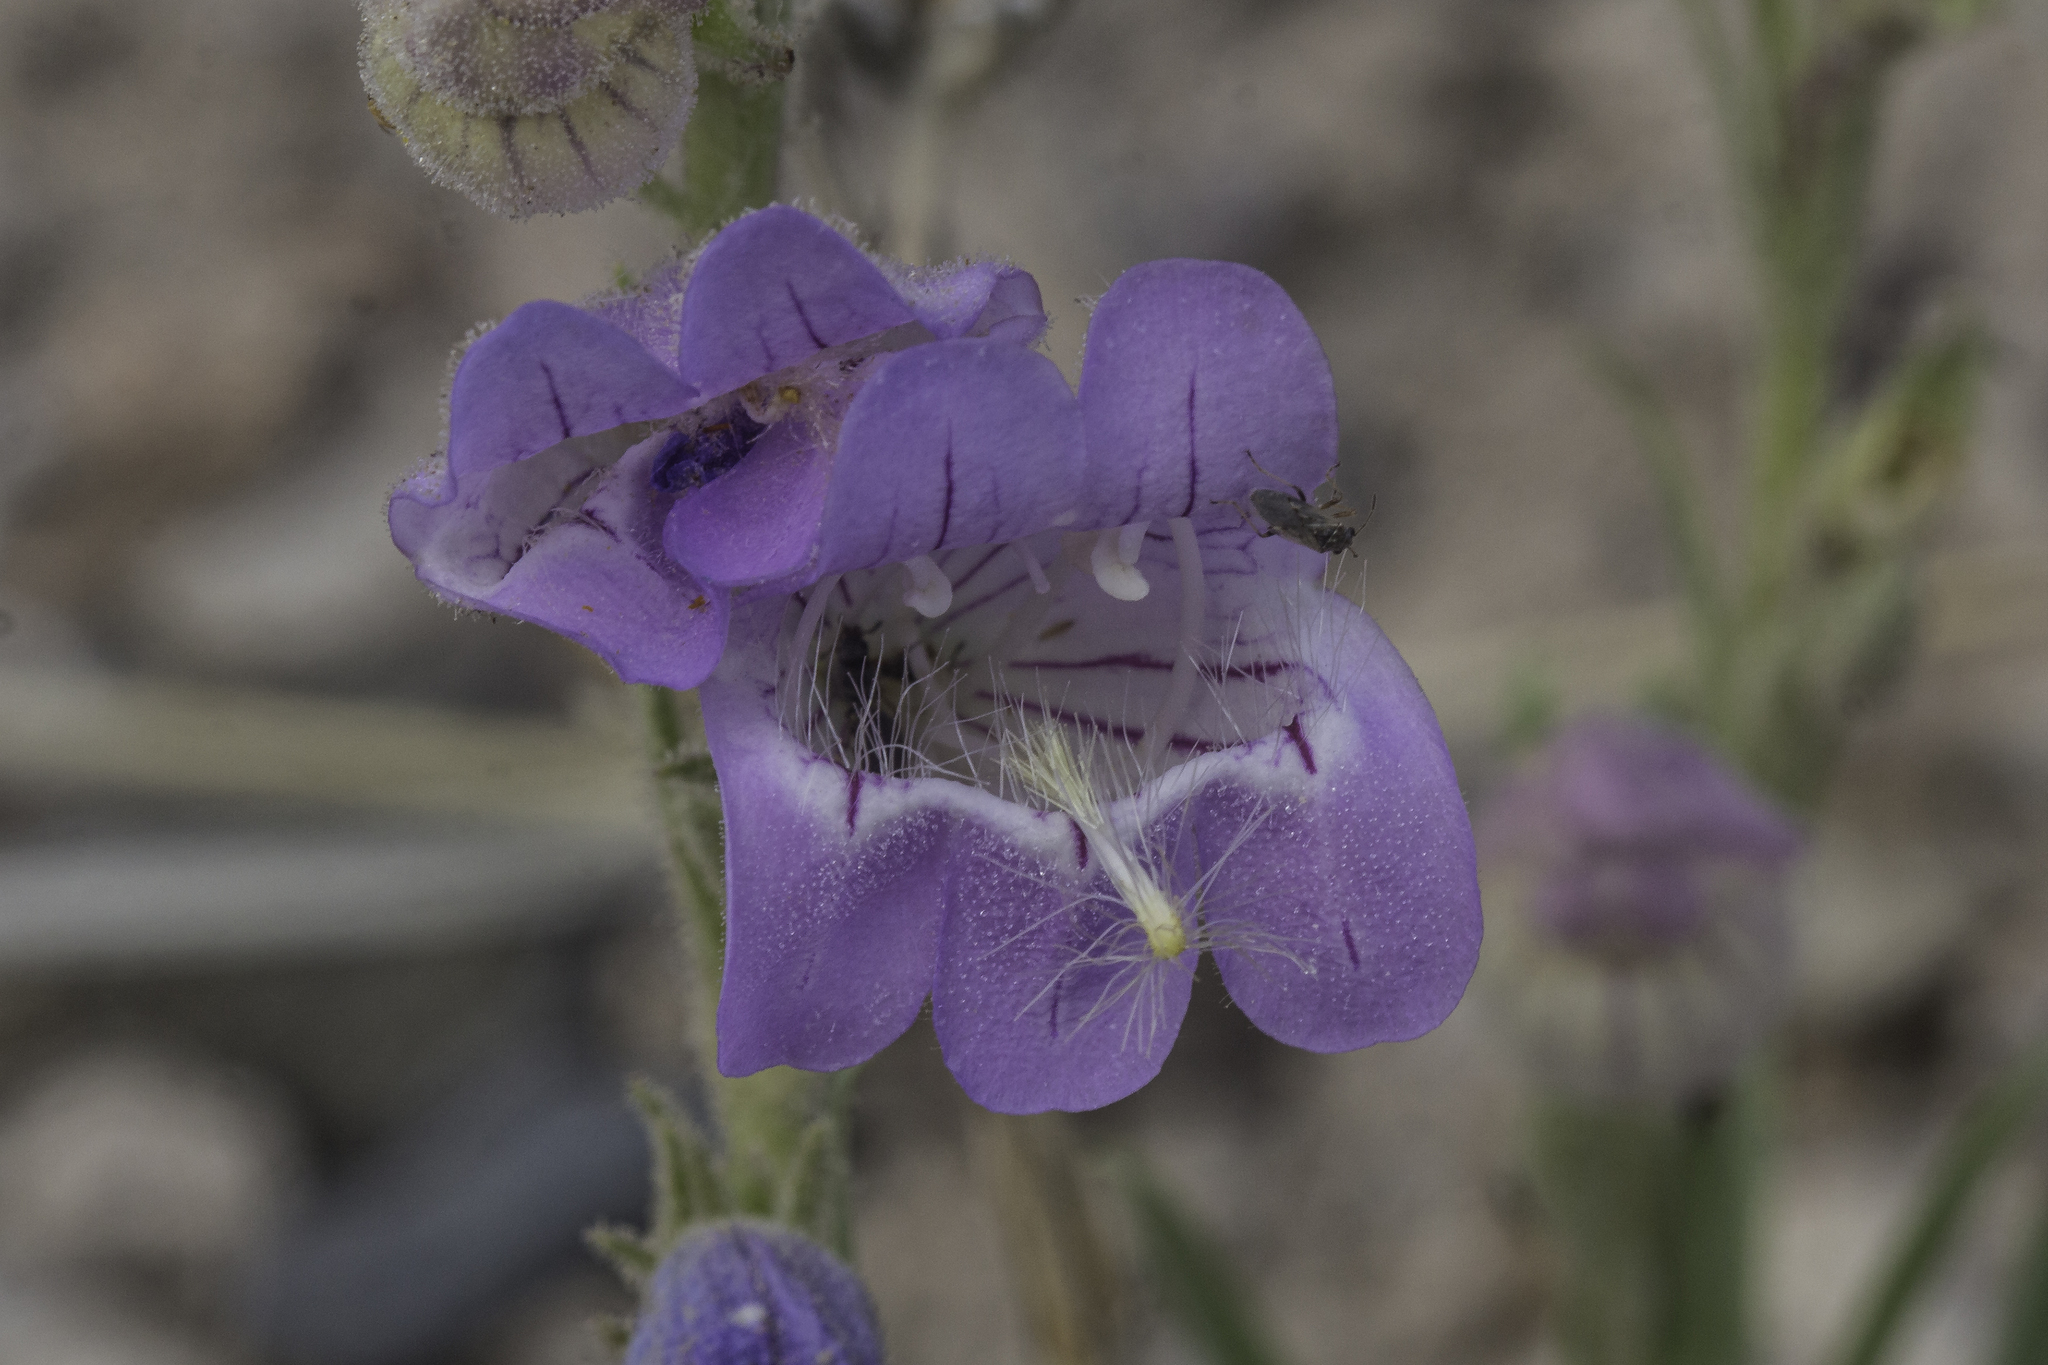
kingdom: Plantae
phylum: Tracheophyta
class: Magnoliopsida
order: Lamiales
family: Plantaginaceae
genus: Penstemon
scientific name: Penstemon jamesii
